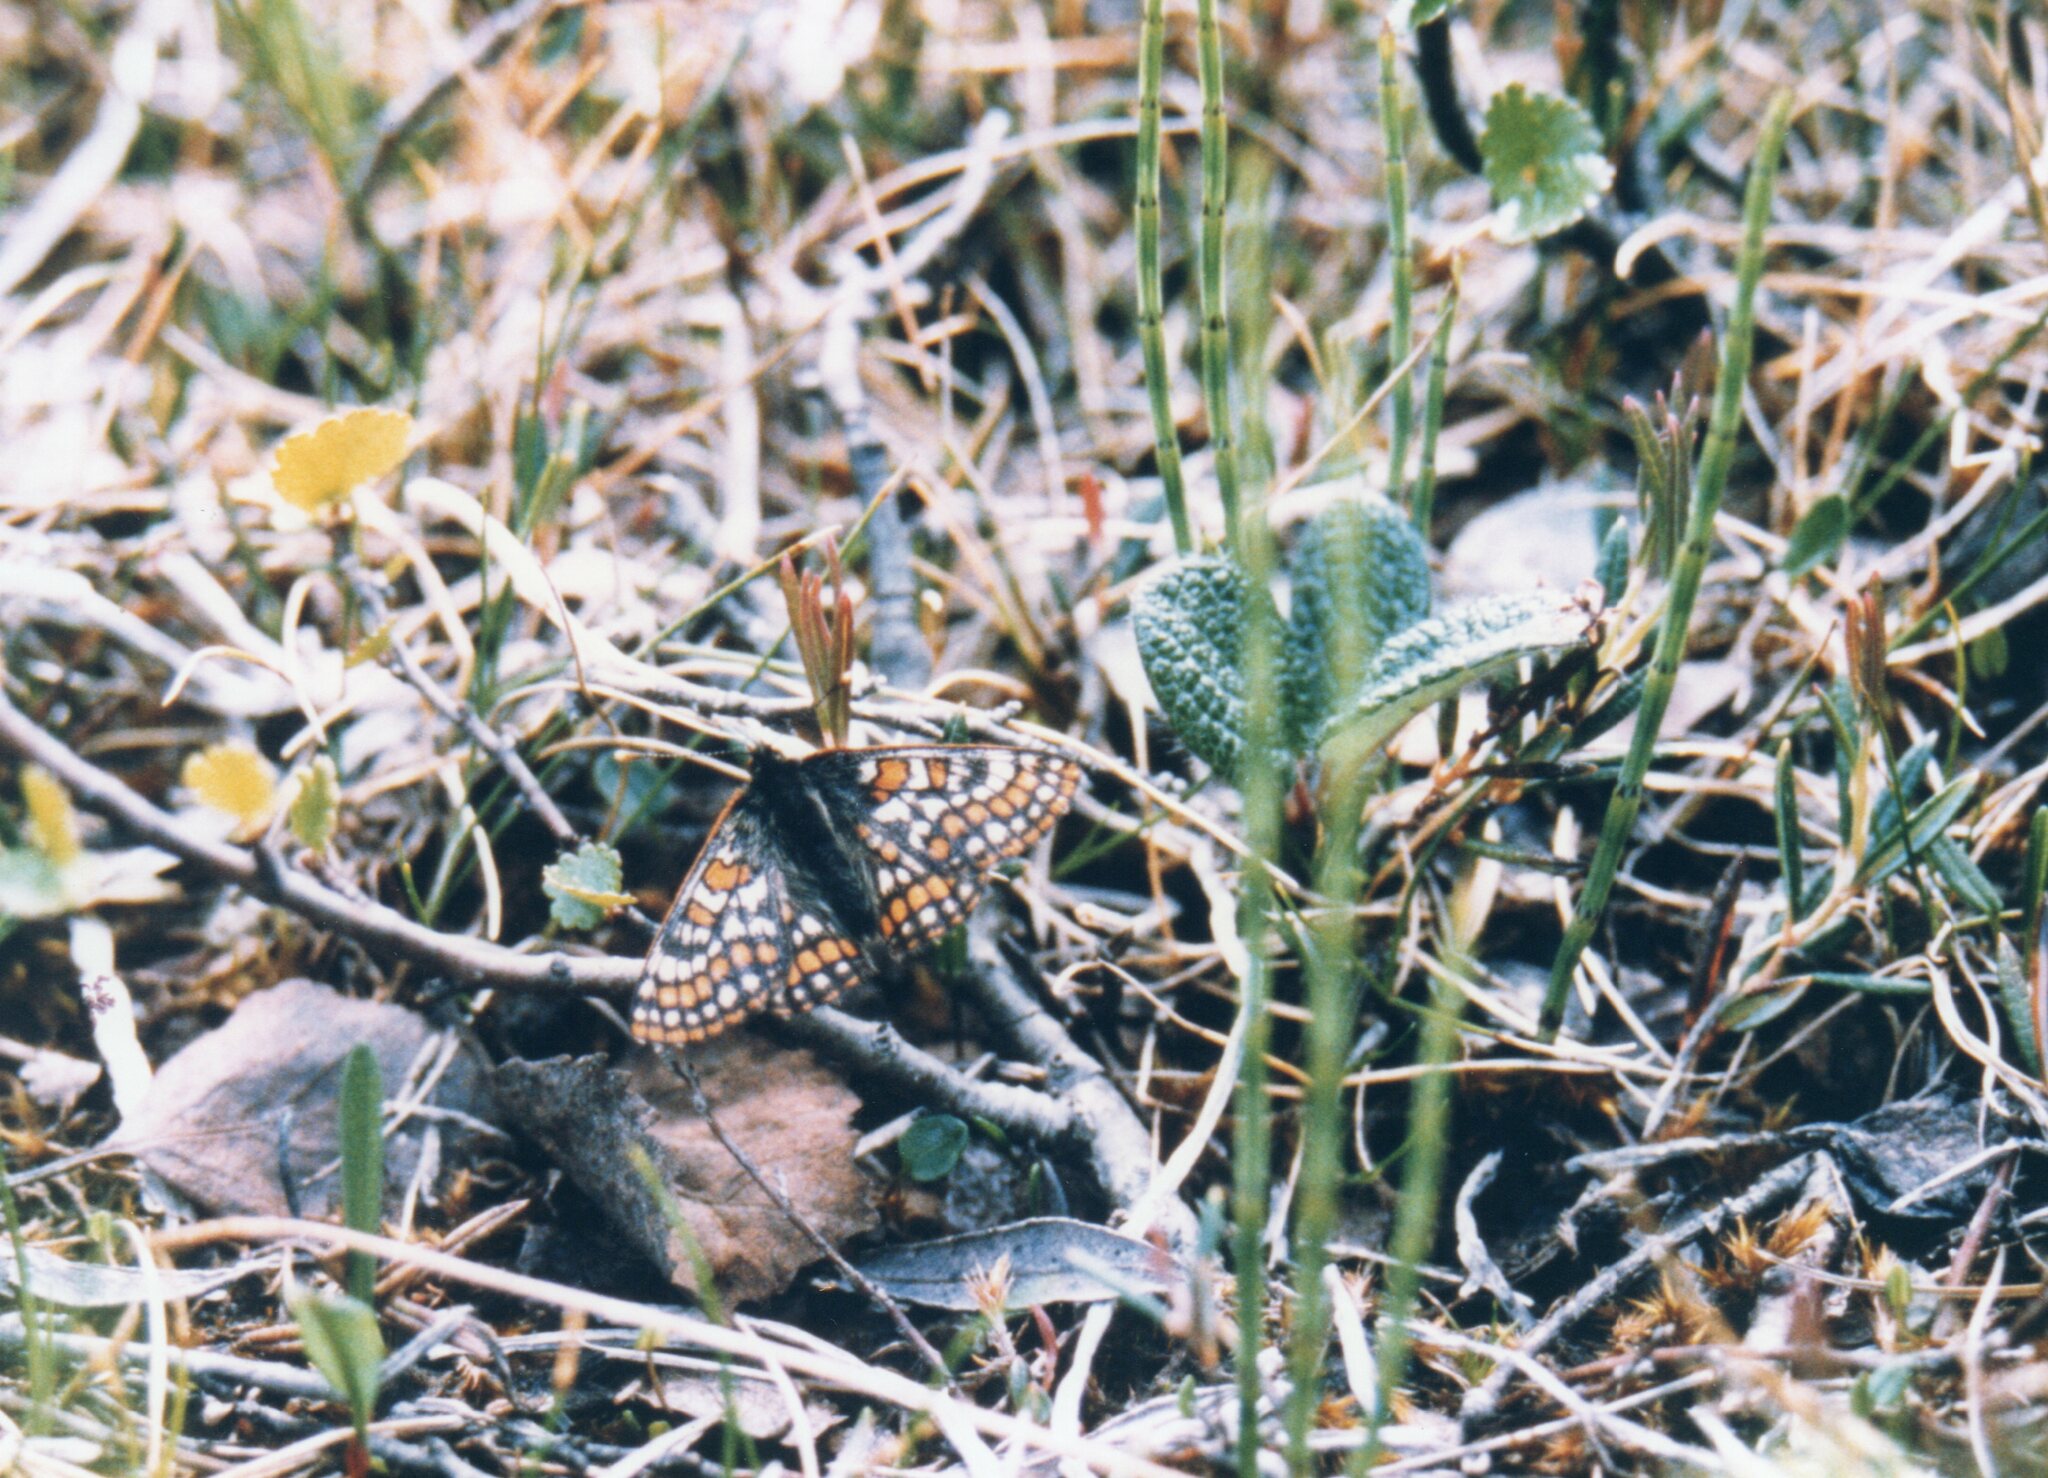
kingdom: Animalia
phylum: Arthropoda
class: Insecta
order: Lepidoptera
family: Nymphalidae
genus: Hypodryas
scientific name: Hypodryas iduna
